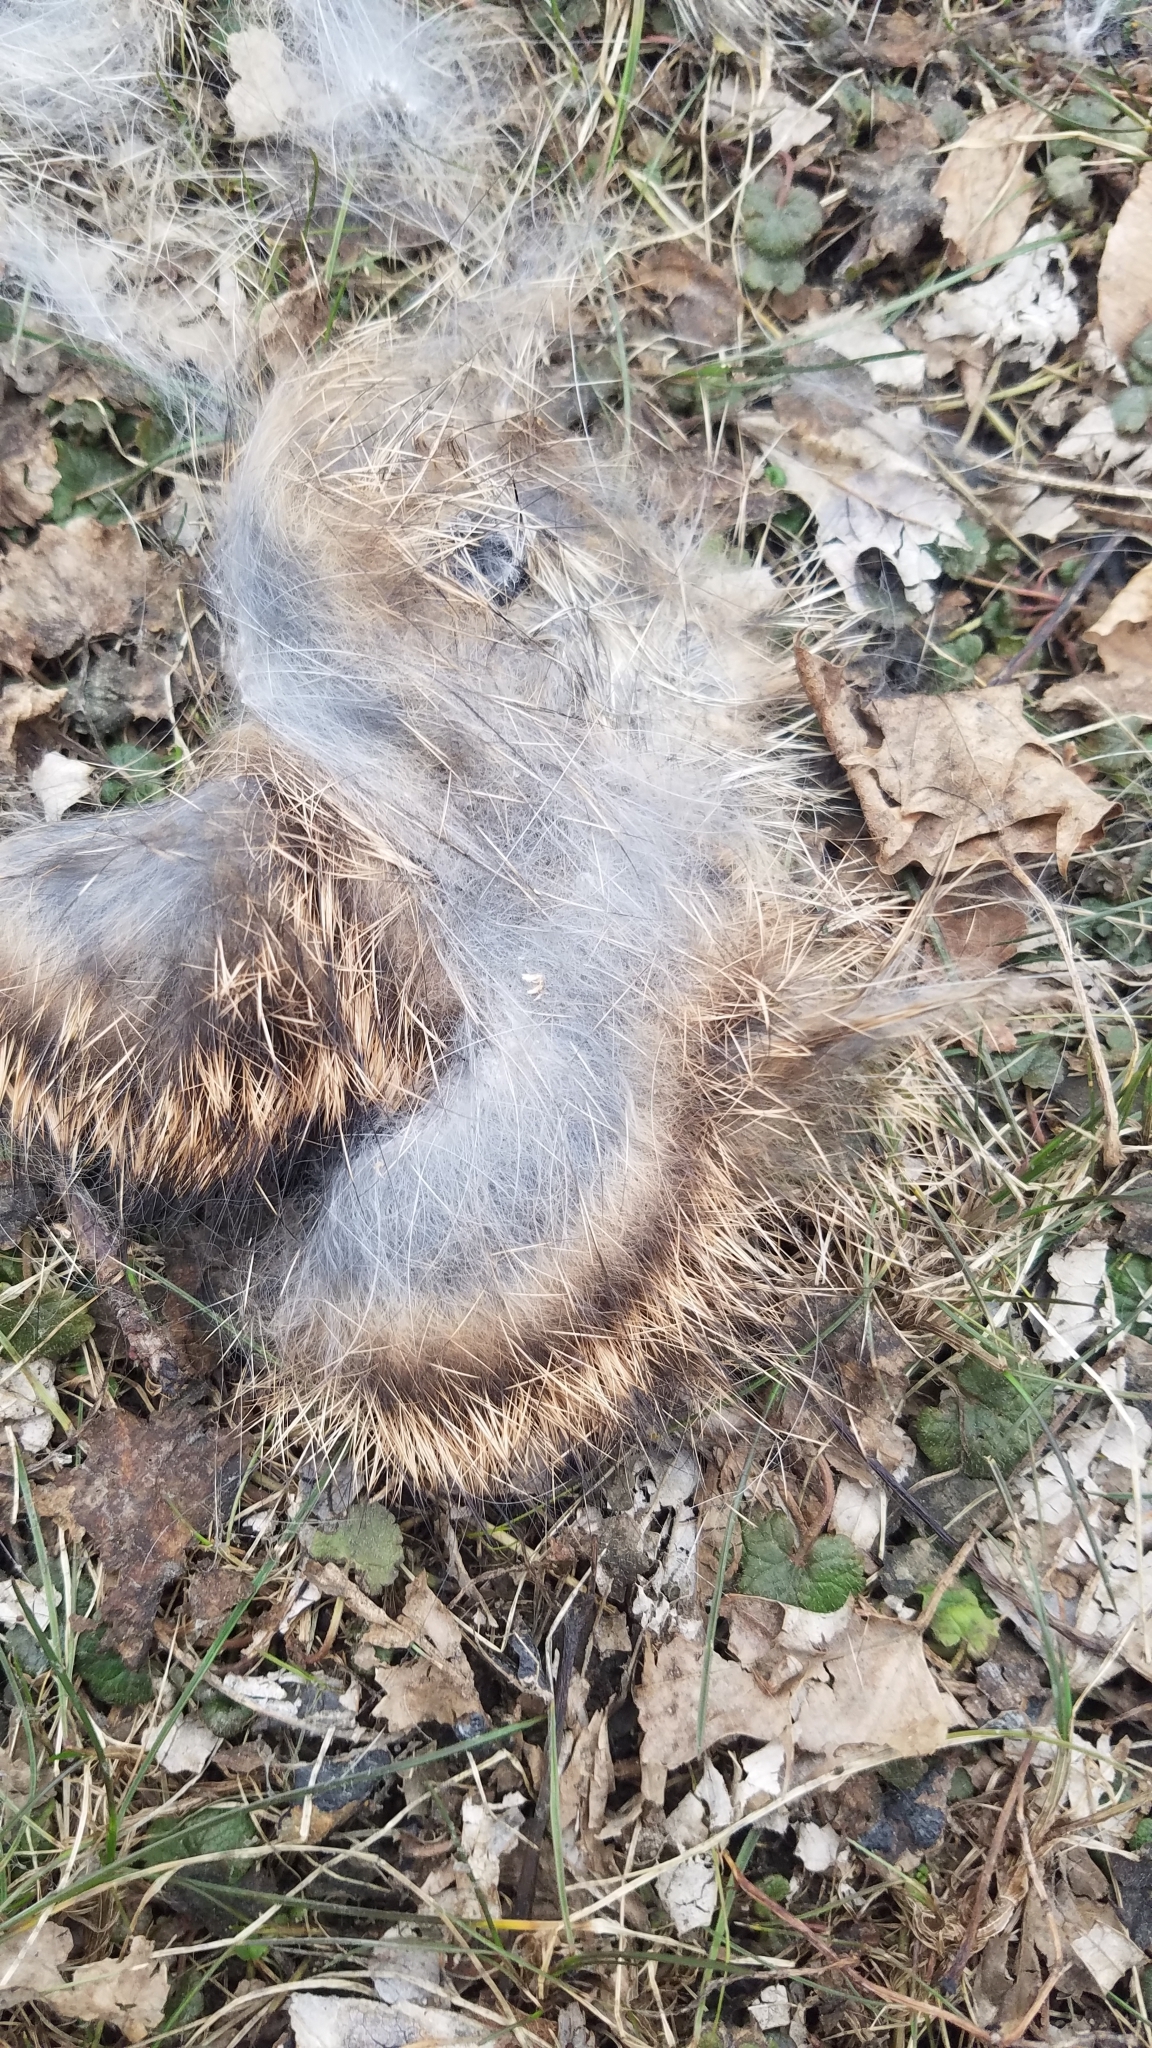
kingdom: Animalia
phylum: Chordata
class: Mammalia
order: Lagomorpha
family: Leporidae
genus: Sylvilagus
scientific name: Sylvilagus floridanus
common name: Eastern cottontail
